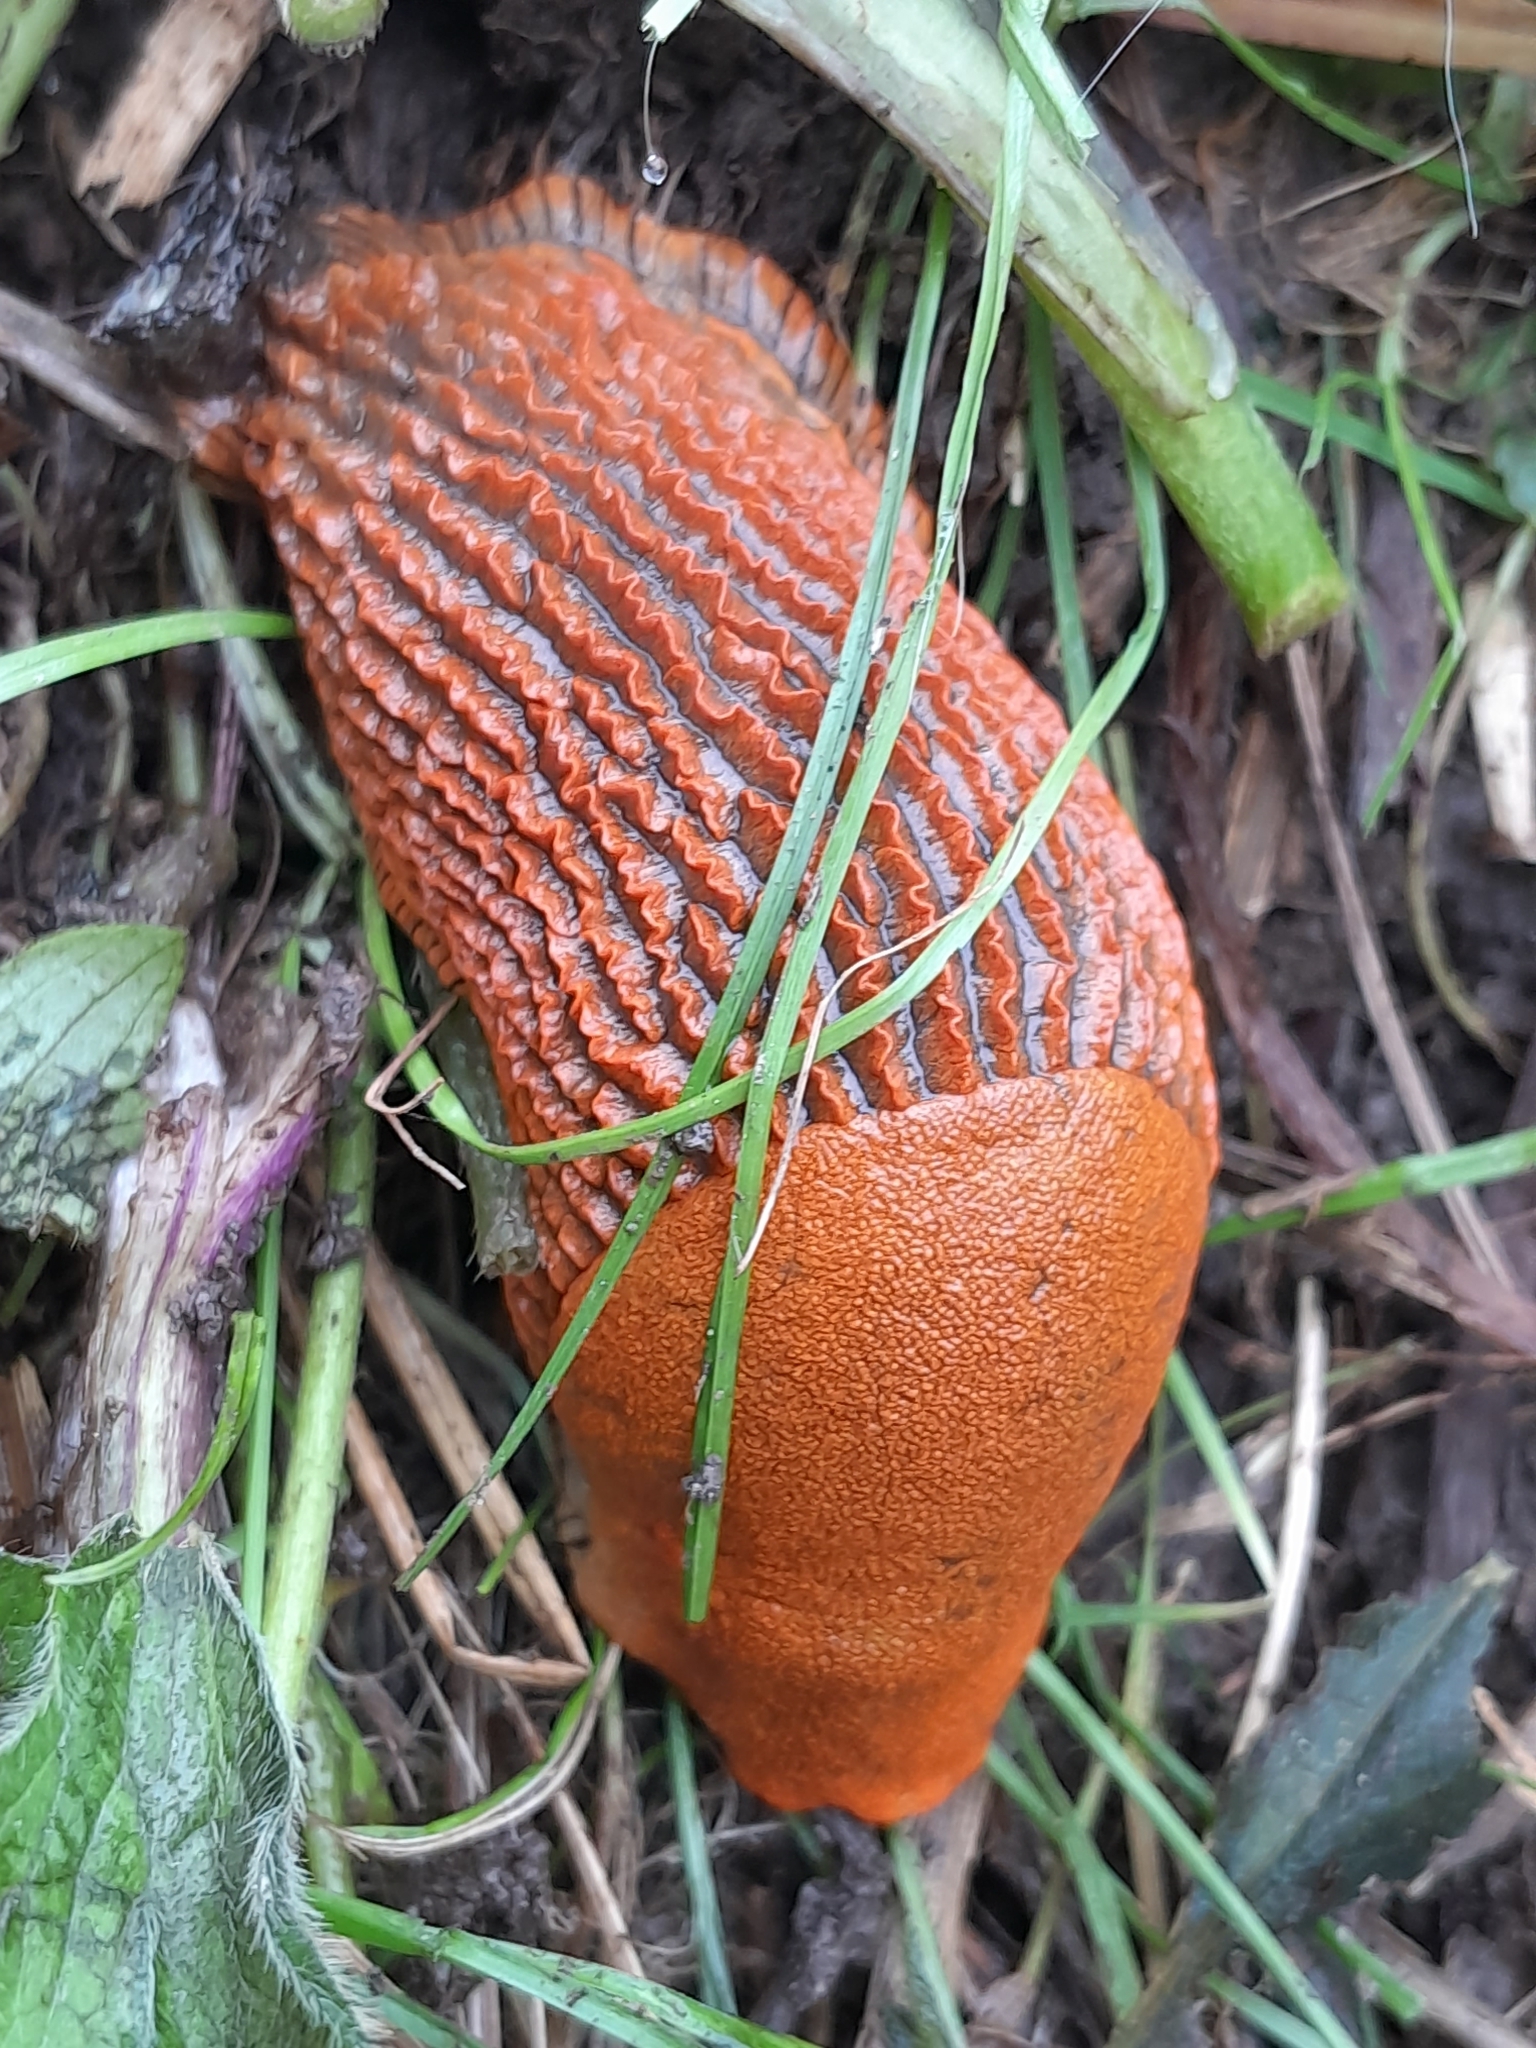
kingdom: Animalia
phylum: Mollusca
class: Gastropoda
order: Stylommatophora
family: Arionidae
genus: Arion
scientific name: Arion vulgaris
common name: Lusitanian slug
